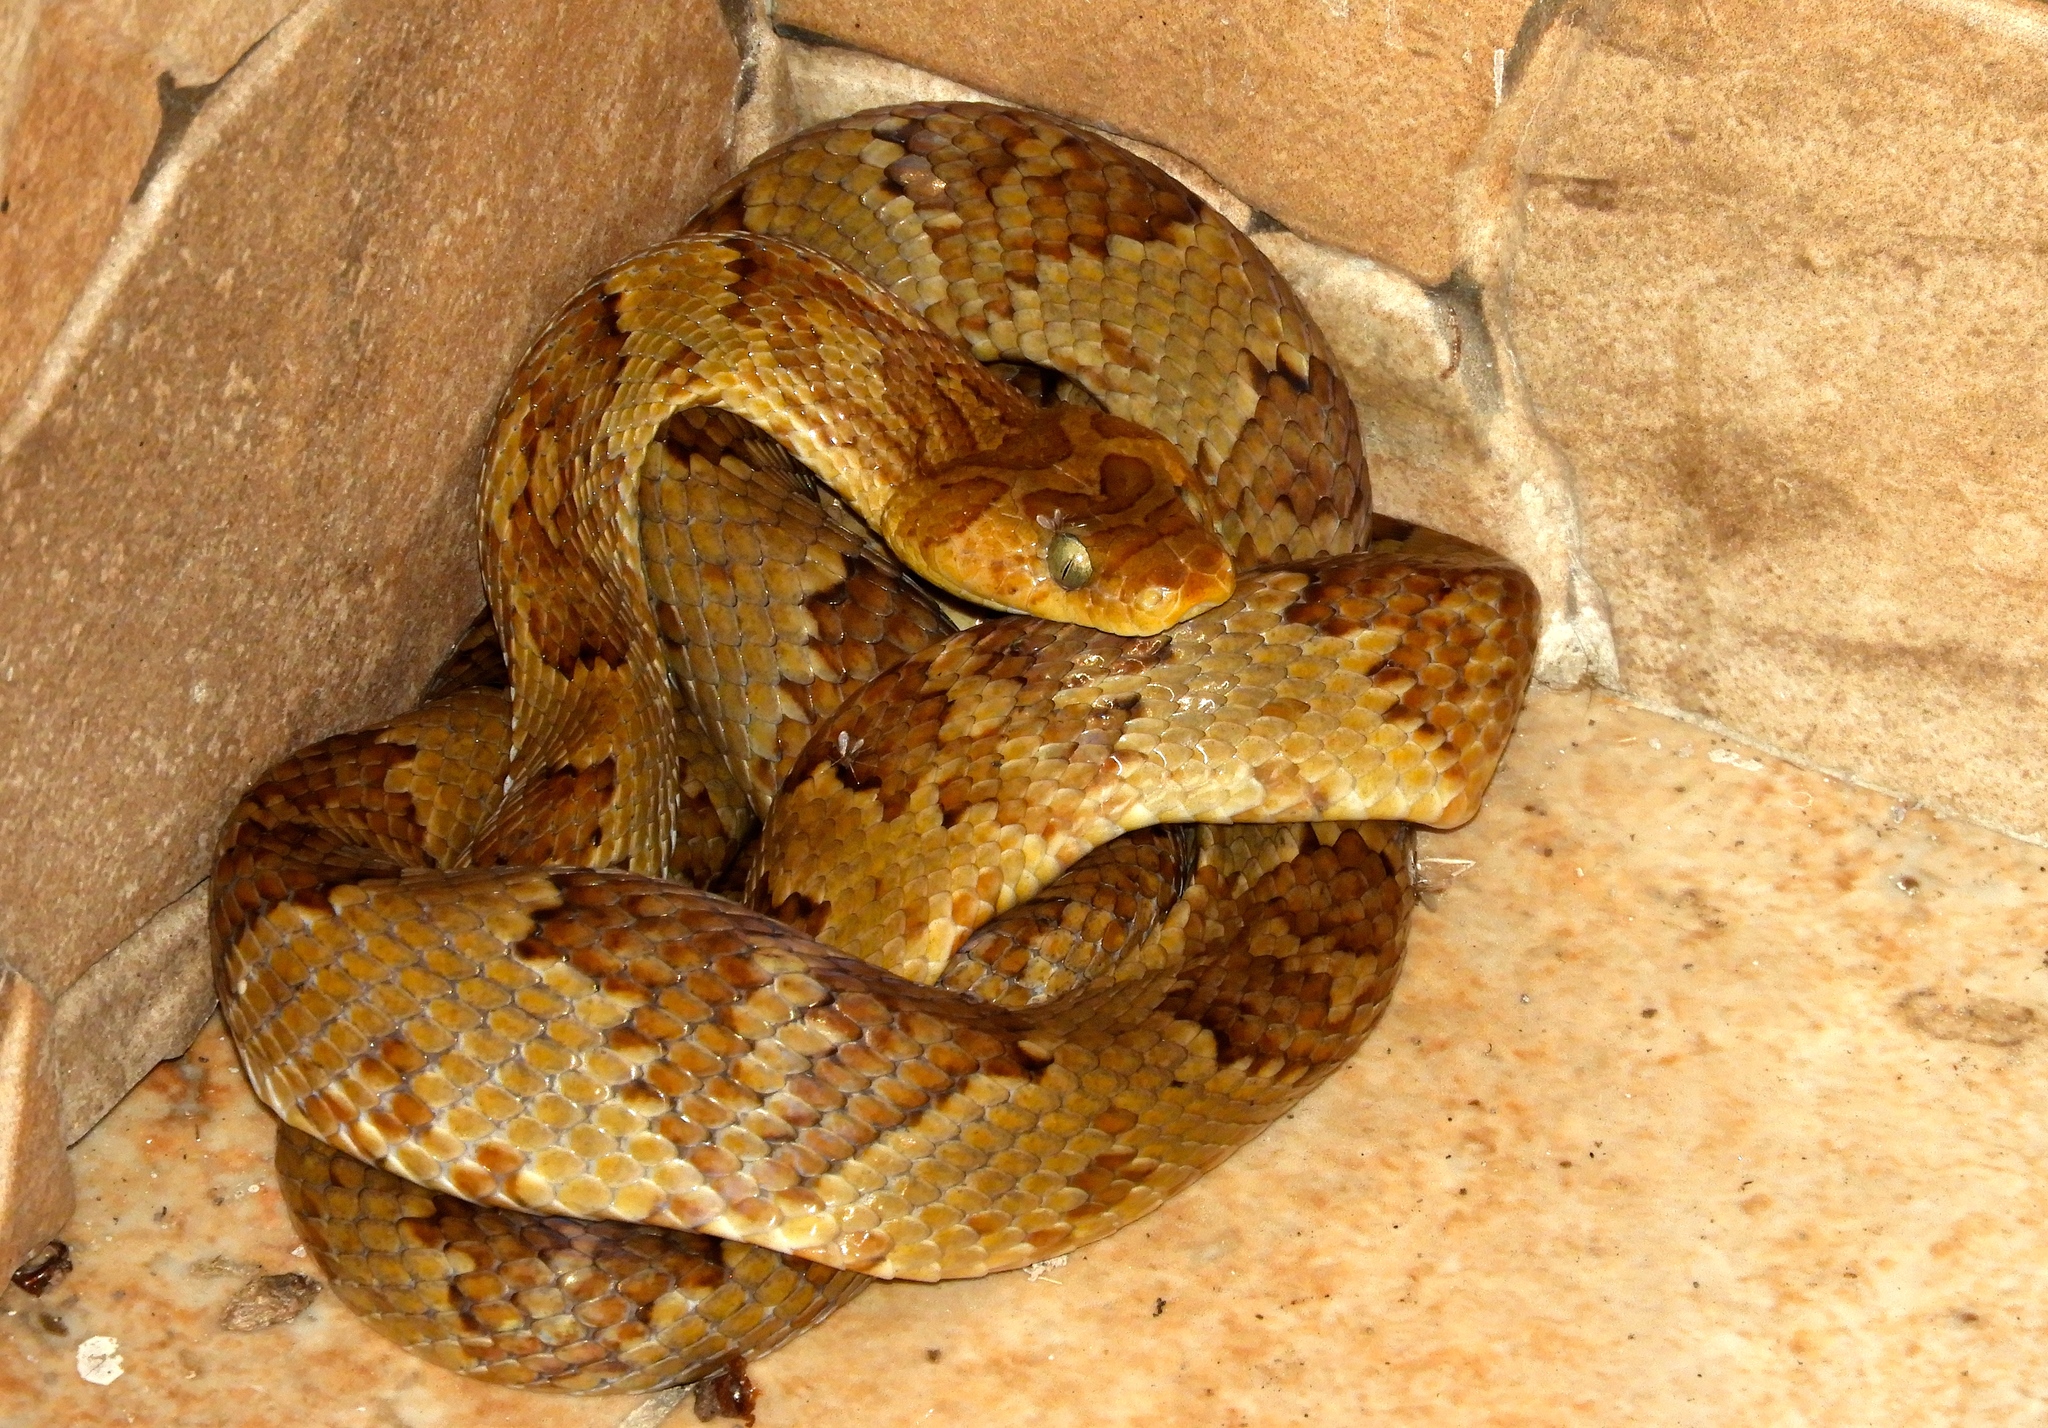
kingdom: Animalia
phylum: Chordata
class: Squamata
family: Colubridae
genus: Trimorphodon
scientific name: Trimorphodon paucimaculatus
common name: Sinaloan lyresnake
